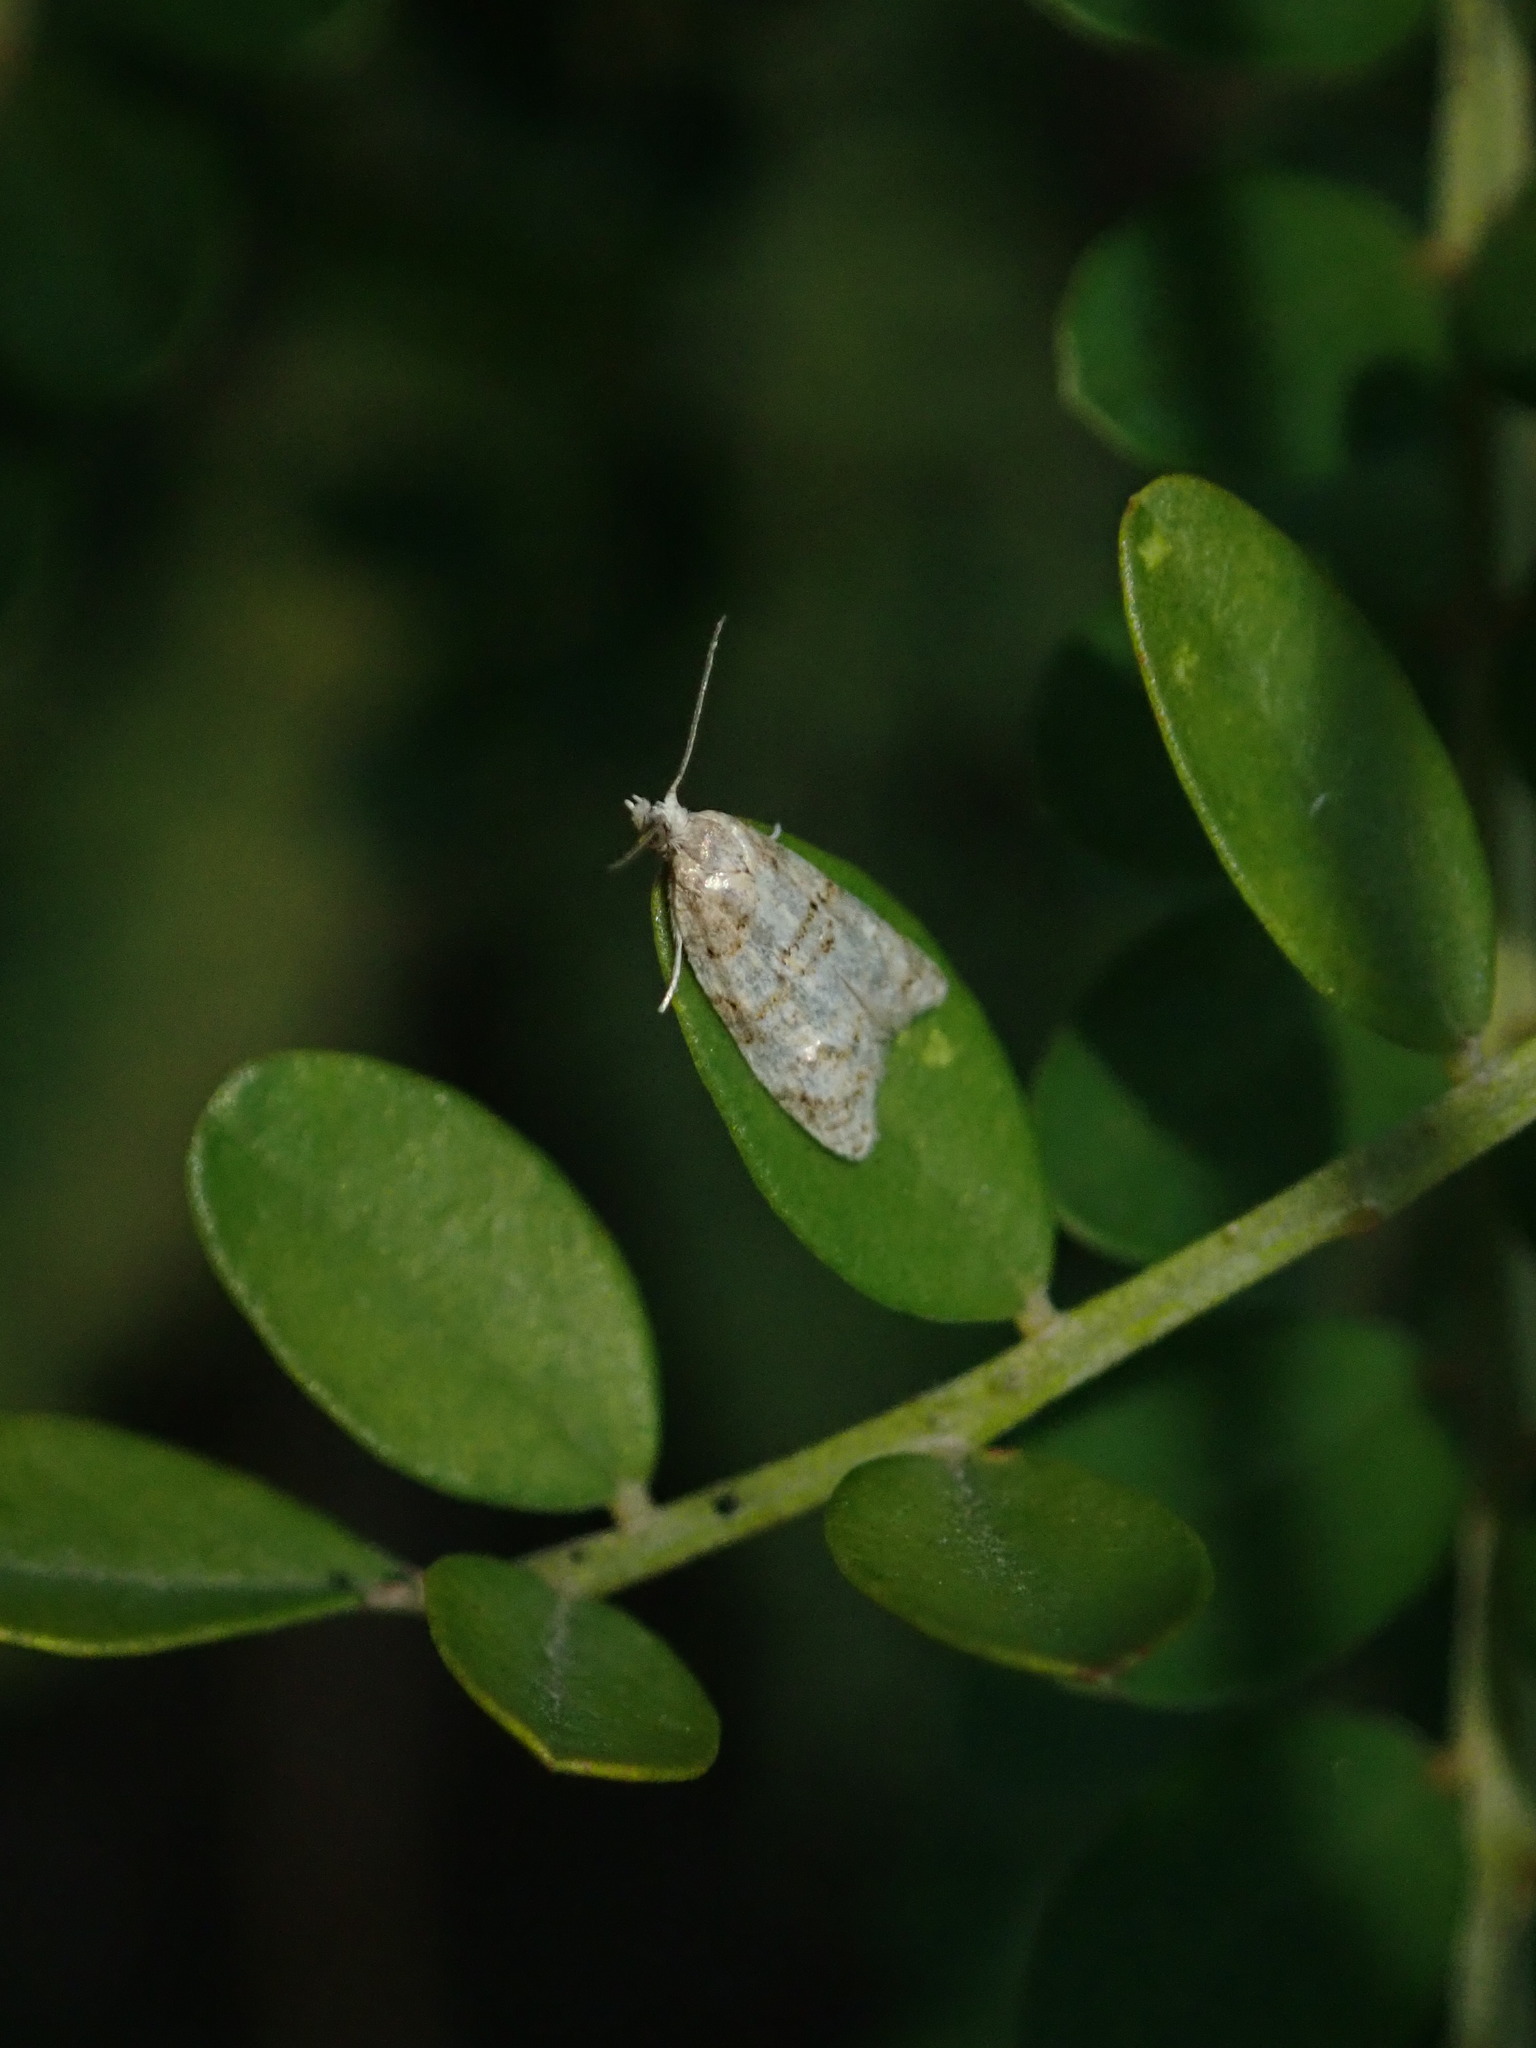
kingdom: Animalia
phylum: Arthropoda
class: Insecta
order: Lepidoptera
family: Tortricidae
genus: Dipterina
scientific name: Dipterina imbriferana
